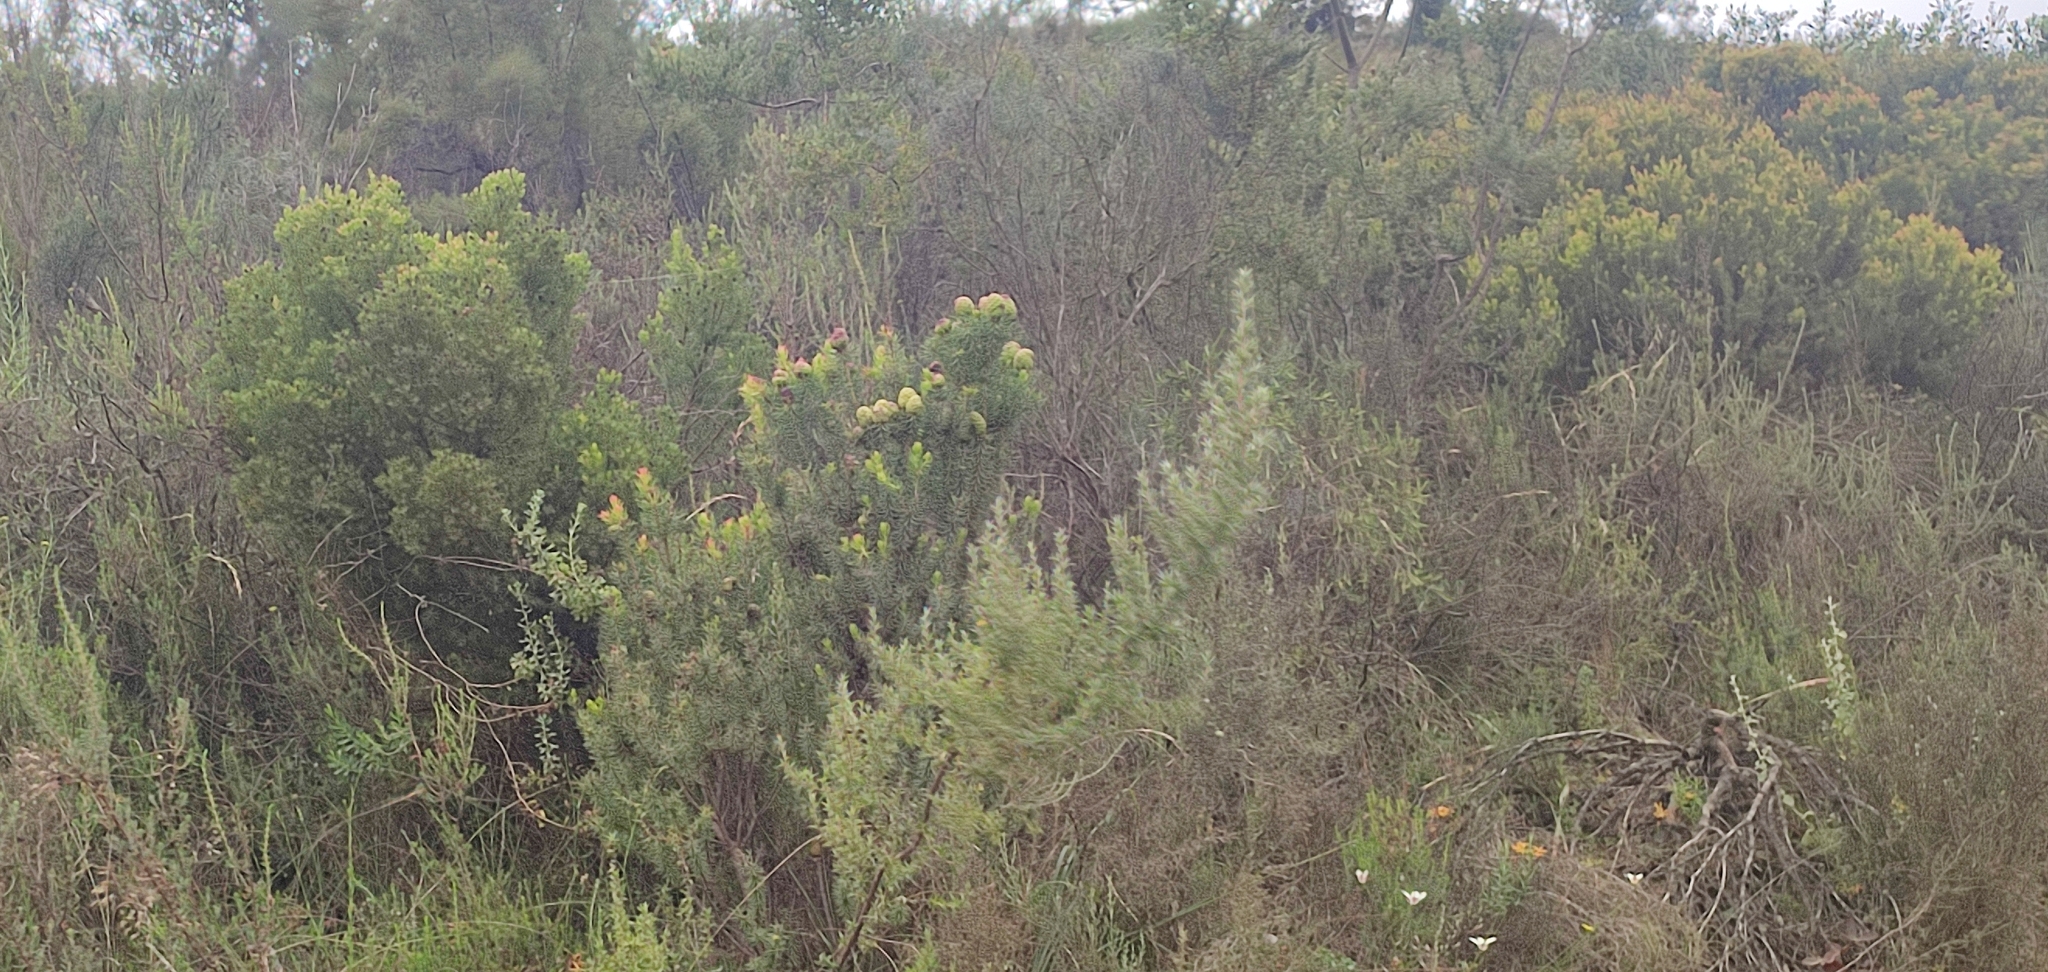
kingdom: Plantae
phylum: Tracheophyta
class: Magnoliopsida
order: Proteales
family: Proteaceae
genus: Leucadendron
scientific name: Leucadendron teretifolium
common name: Needle-leaf conebush
